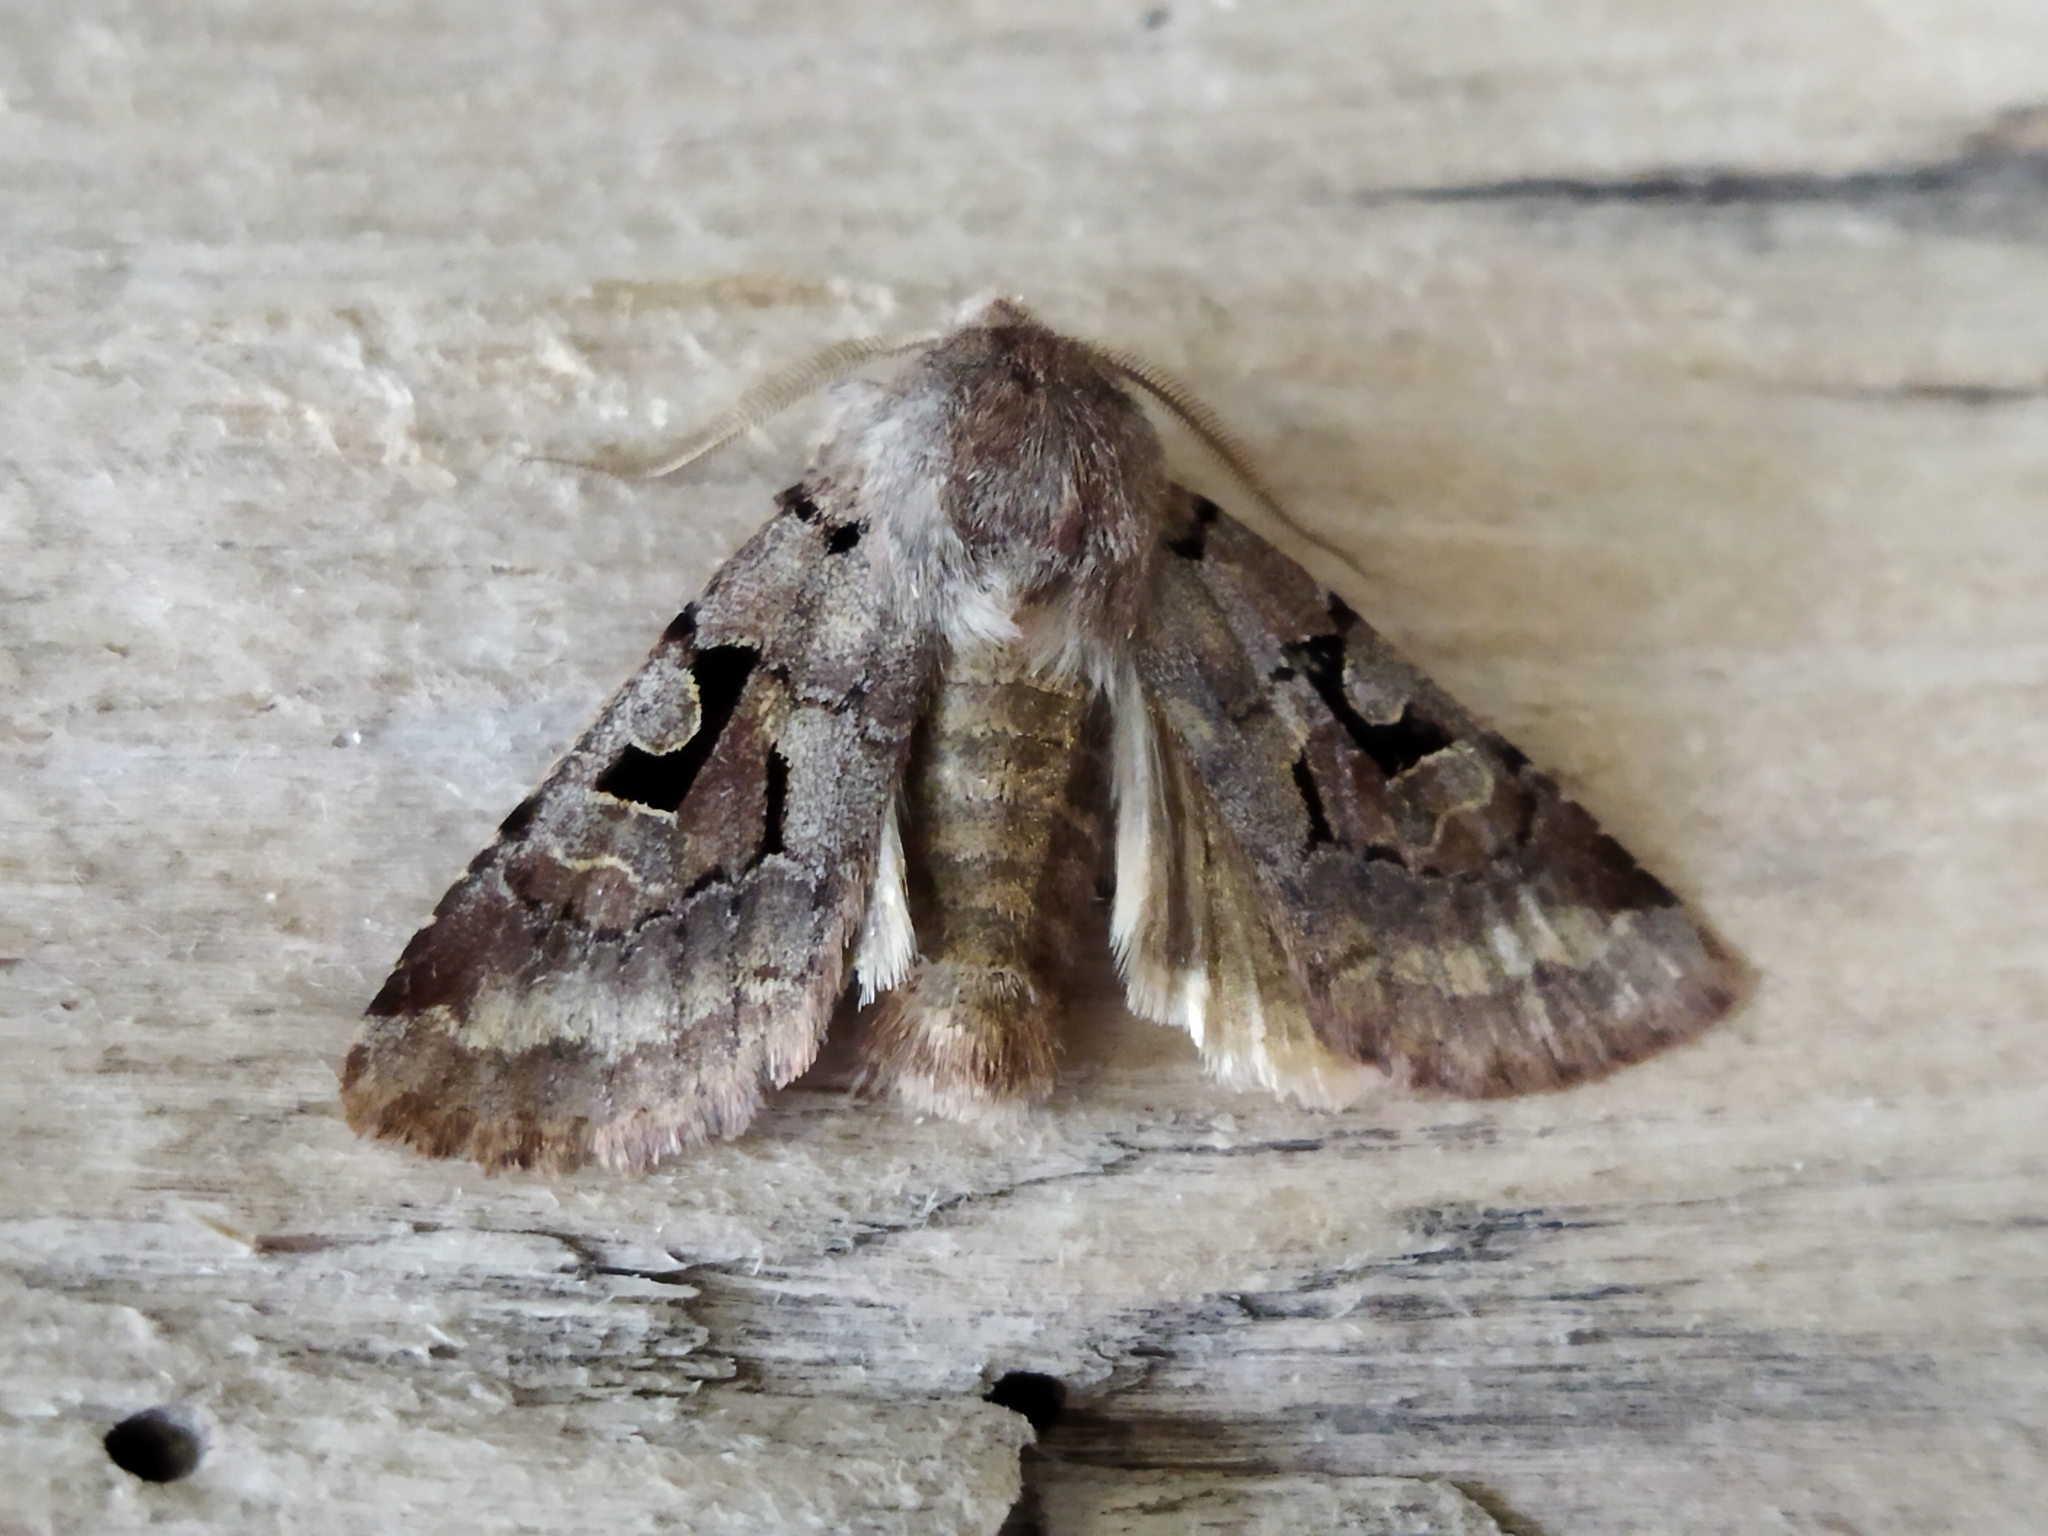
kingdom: Animalia
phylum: Arthropoda
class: Insecta
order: Lepidoptera
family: Noctuidae
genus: Orthosia
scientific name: Orthosia gothica
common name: Hebrew character
